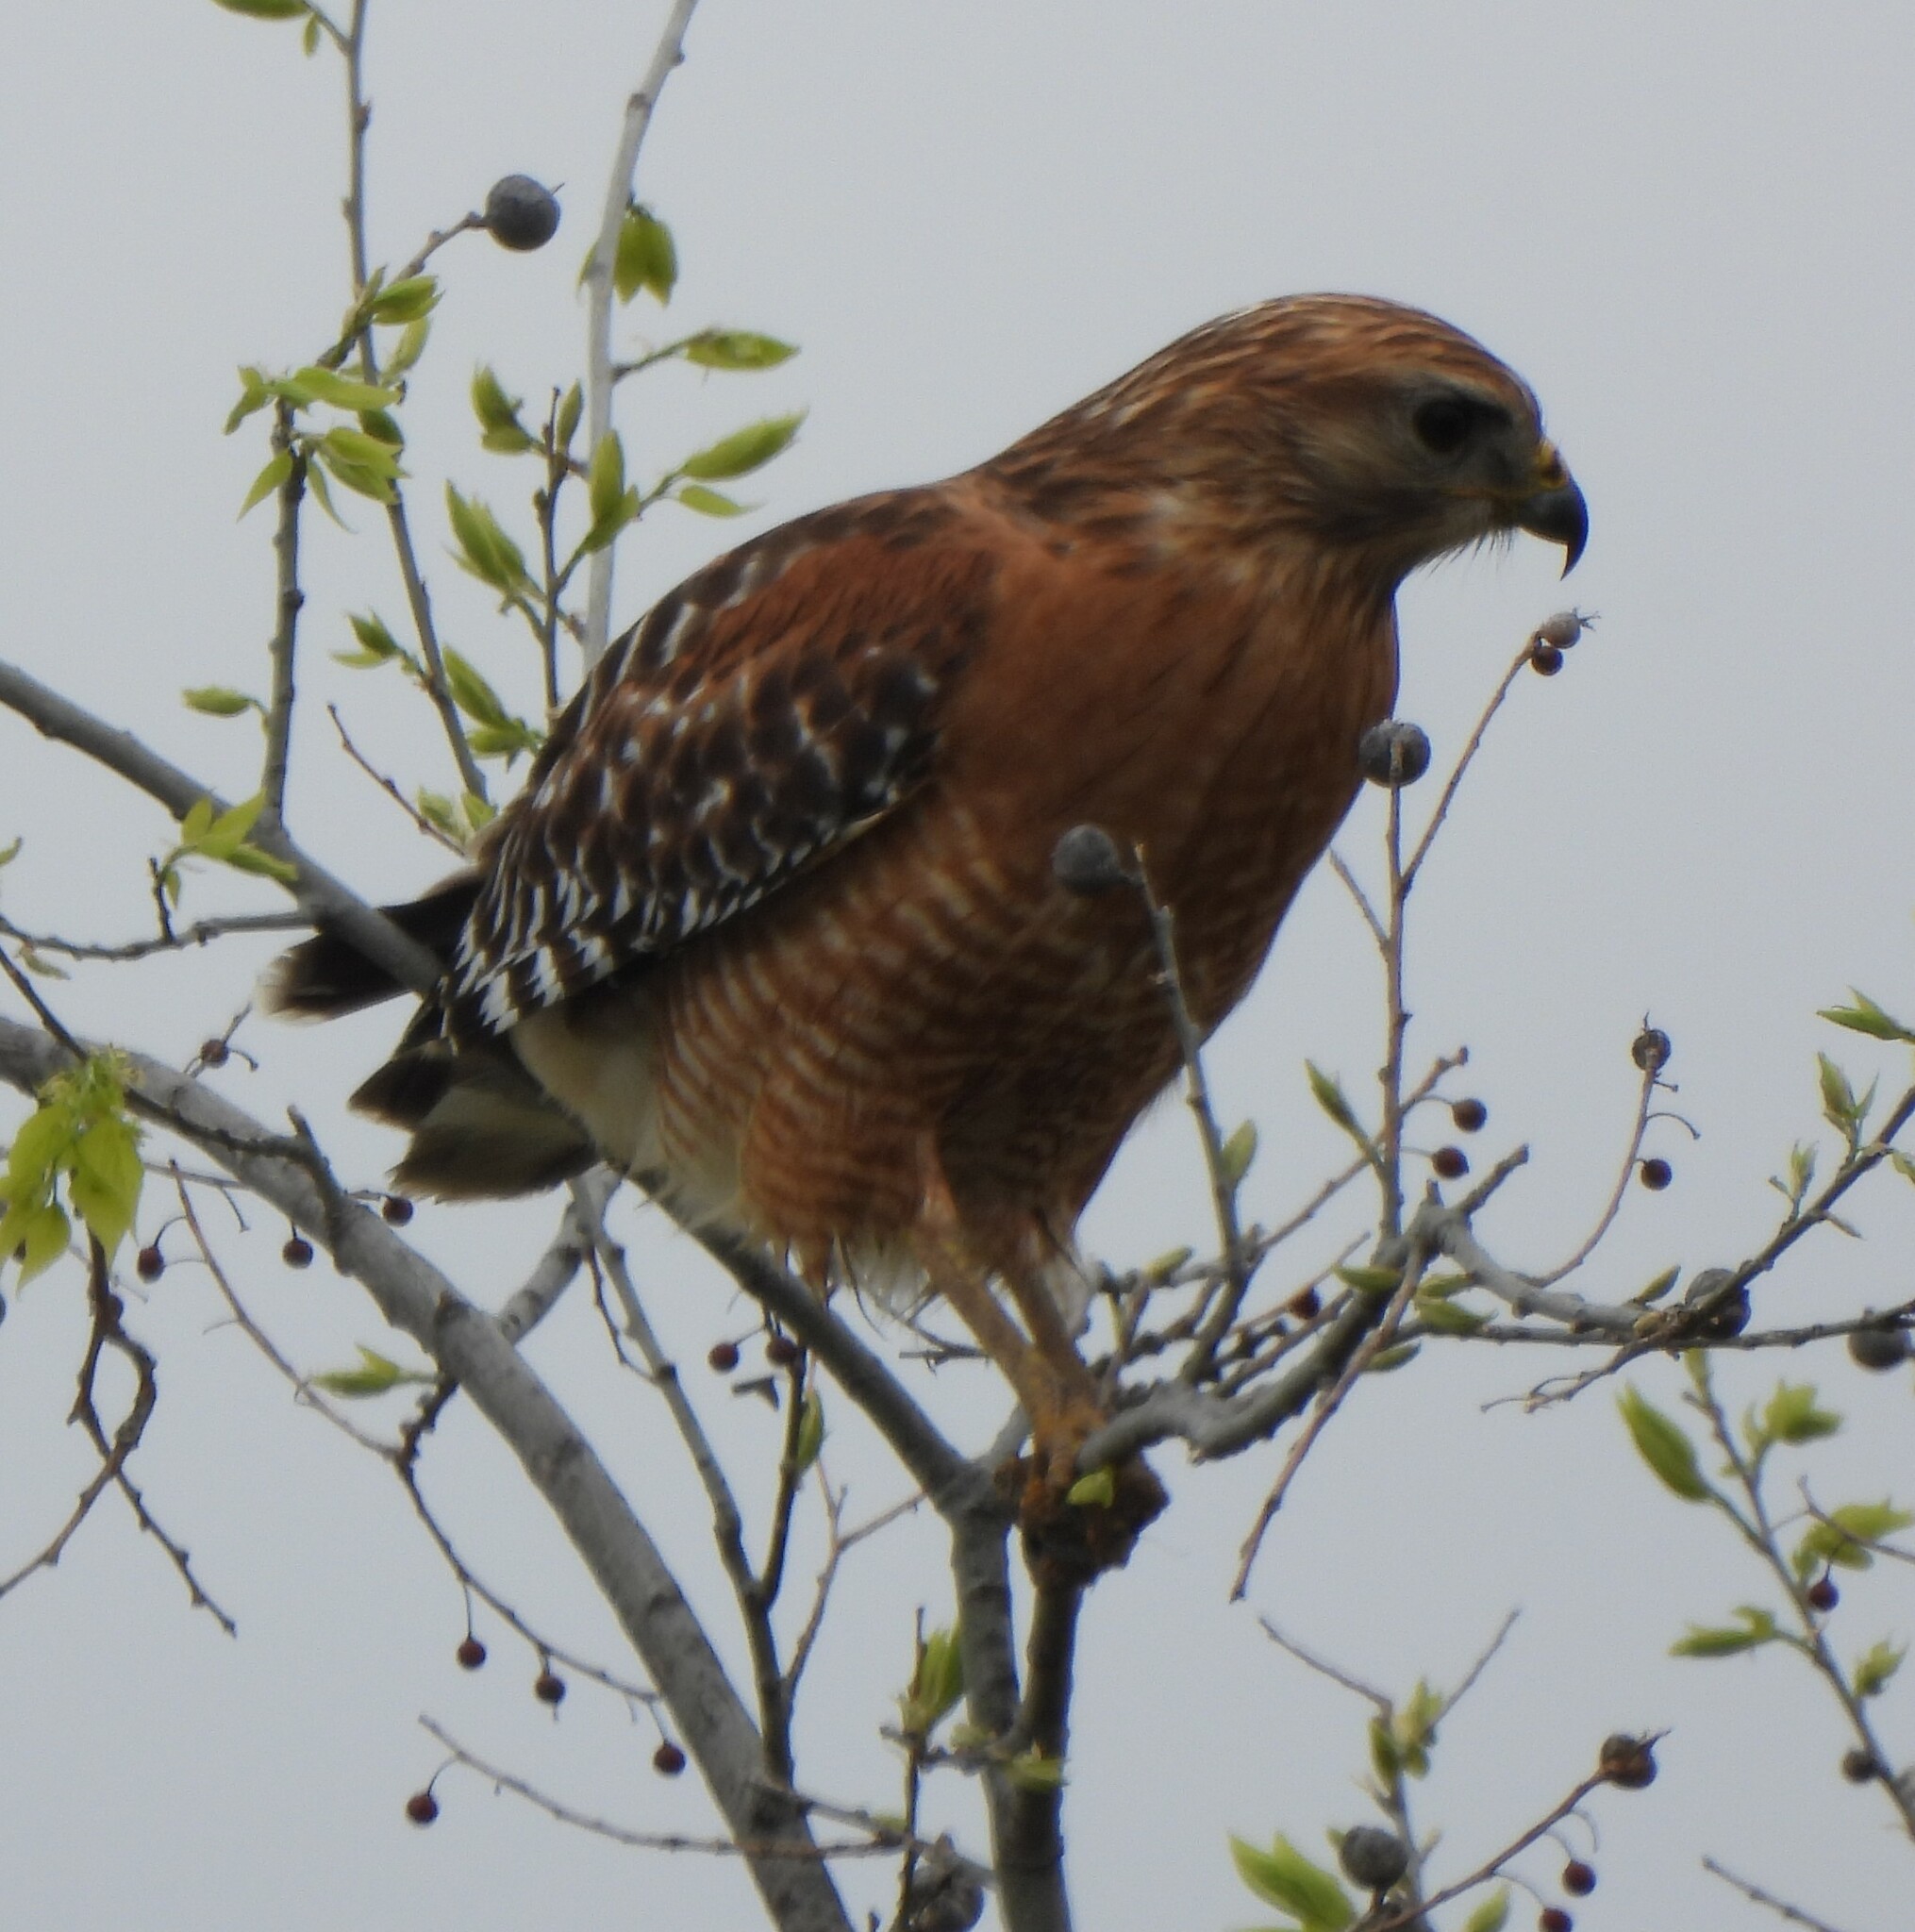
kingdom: Animalia
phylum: Chordata
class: Aves
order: Accipitriformes
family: Accipitridae
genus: Buteo
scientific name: Buteo lineatus
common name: Red-shouldered hawk
